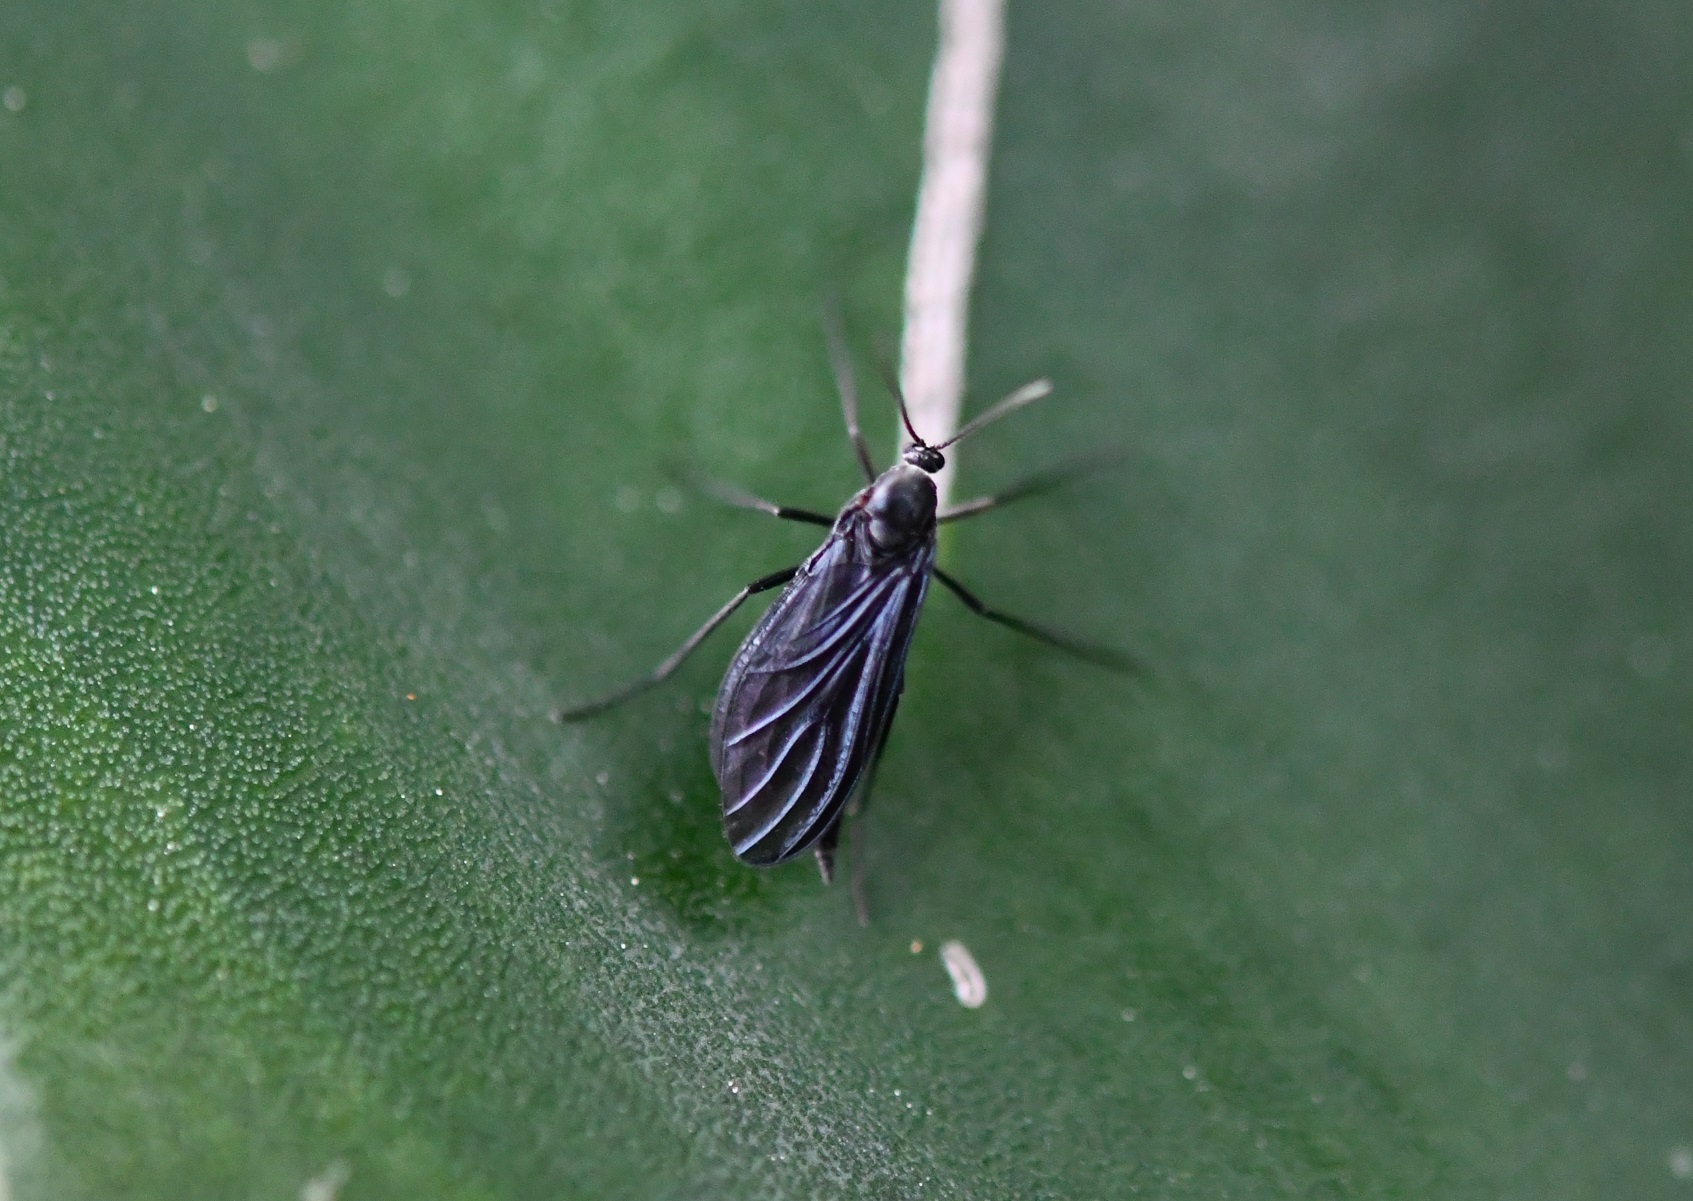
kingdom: Animalia
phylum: Arthropoda
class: Insecta
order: Diptera
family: Sciaridae
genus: Odontosciara
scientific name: Odontosciara nigra
